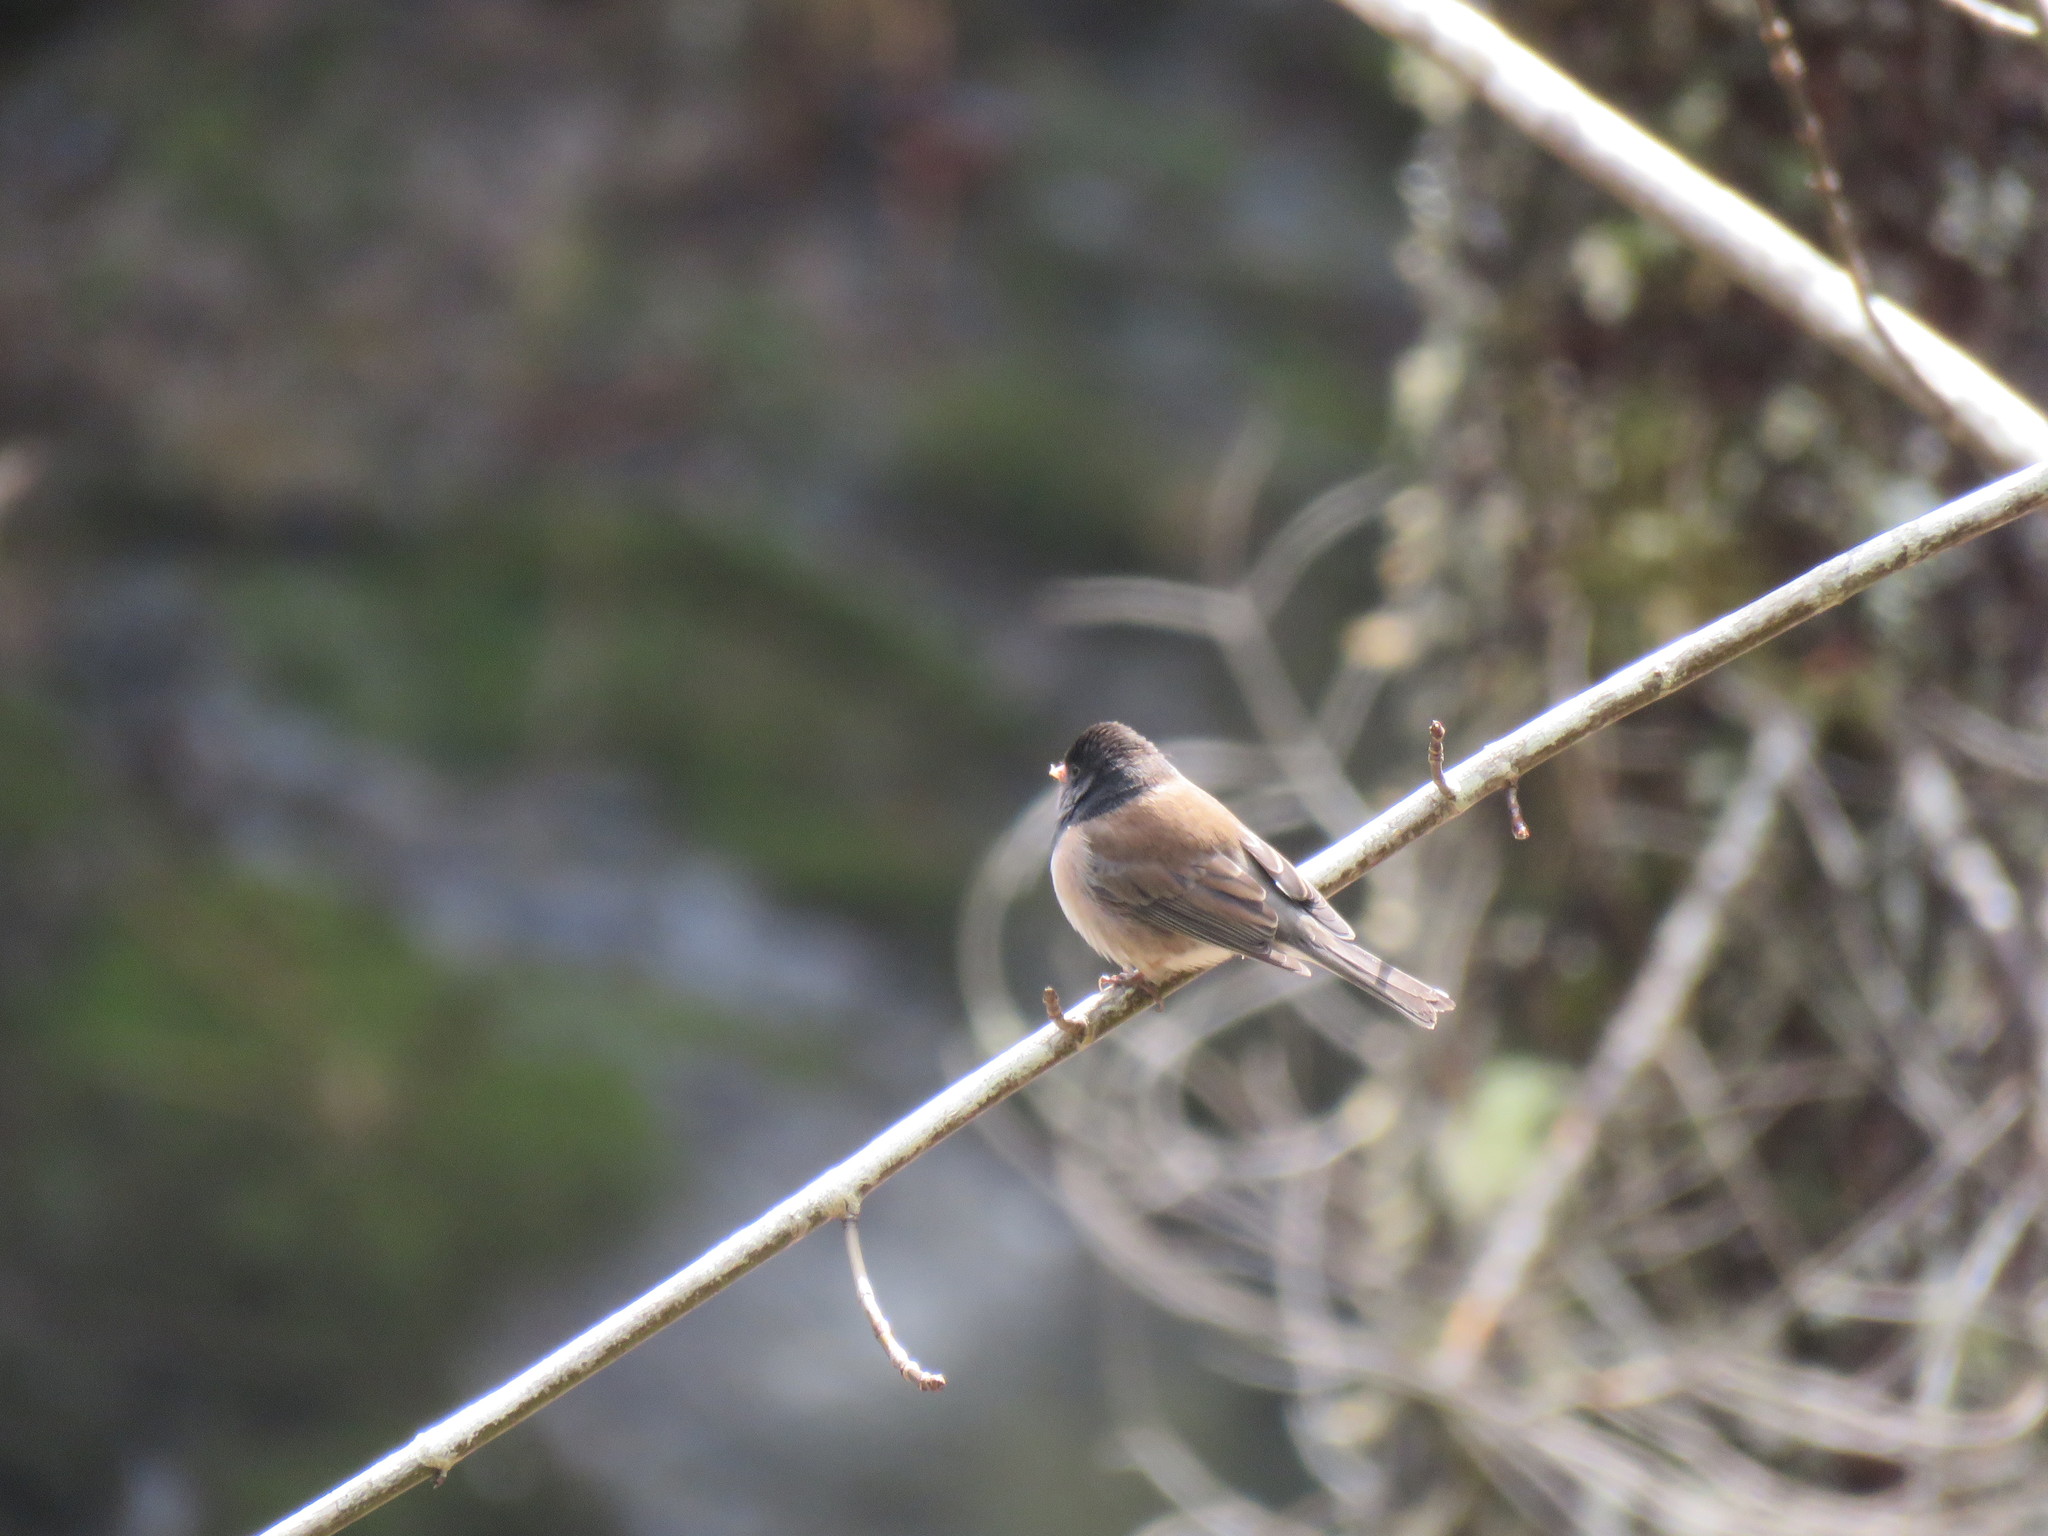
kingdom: Animalia
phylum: Chordata
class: Aves
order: Passeriformes
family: Passerellidae
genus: Junco
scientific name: Junco hyemalis
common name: Dark-eyed junco
